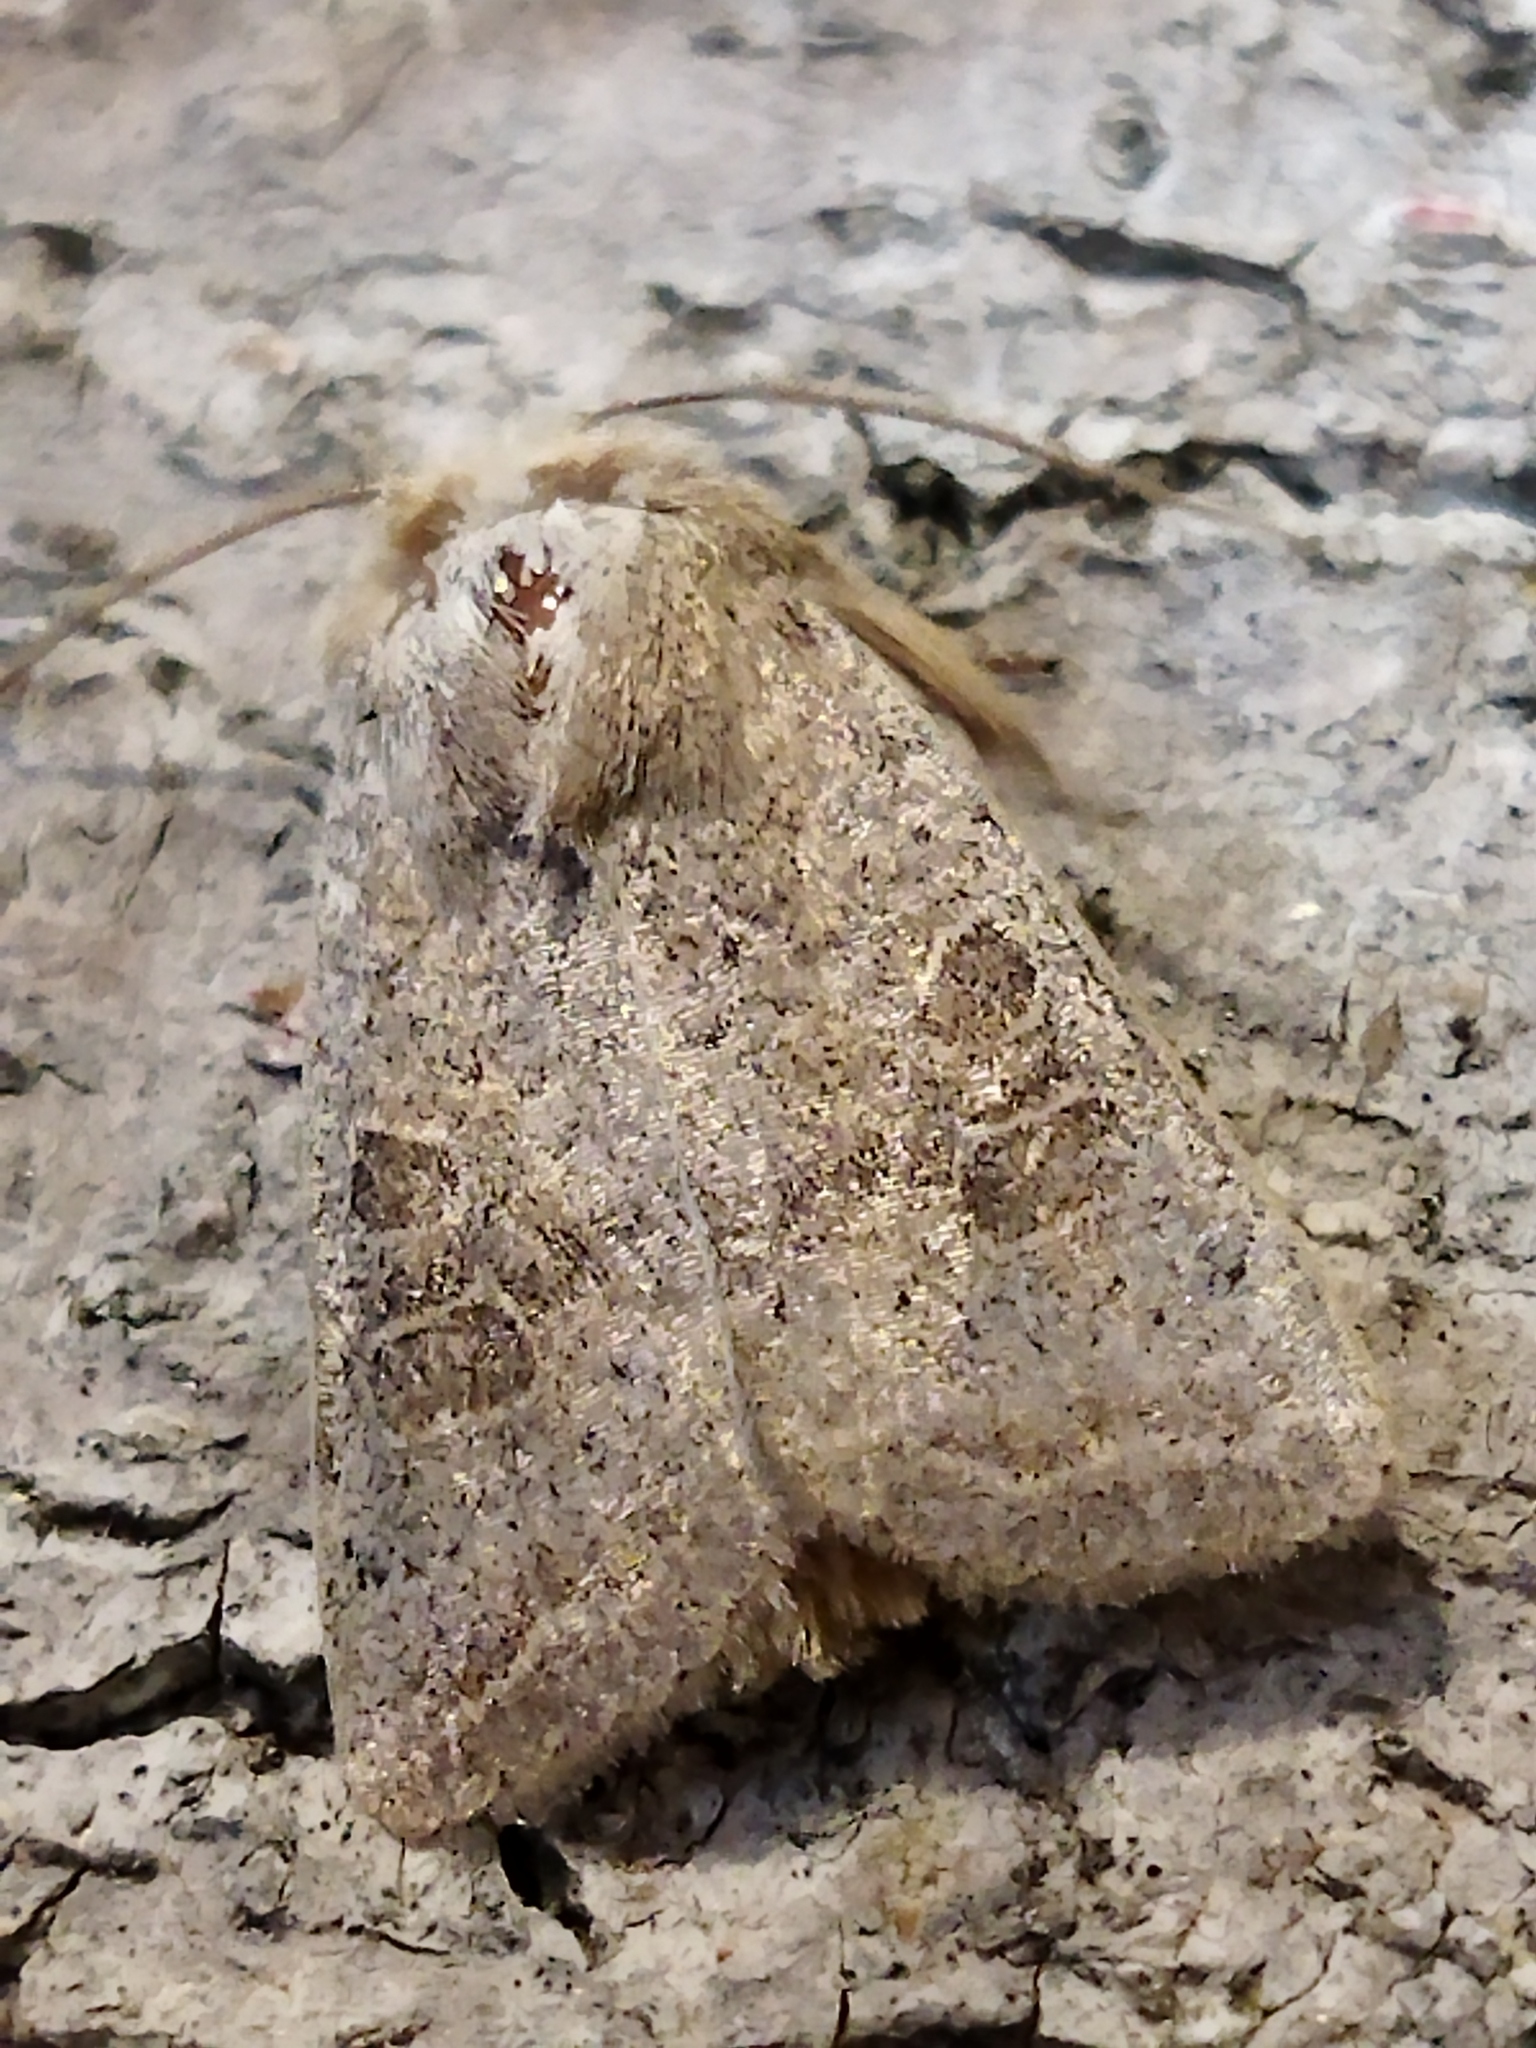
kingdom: Animalia
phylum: Arthropoda
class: Insecta
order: Lepidoptera
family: Noctuidae
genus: Hoplodrina
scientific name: Hoplodrina ambigua
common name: Vine's rustic
